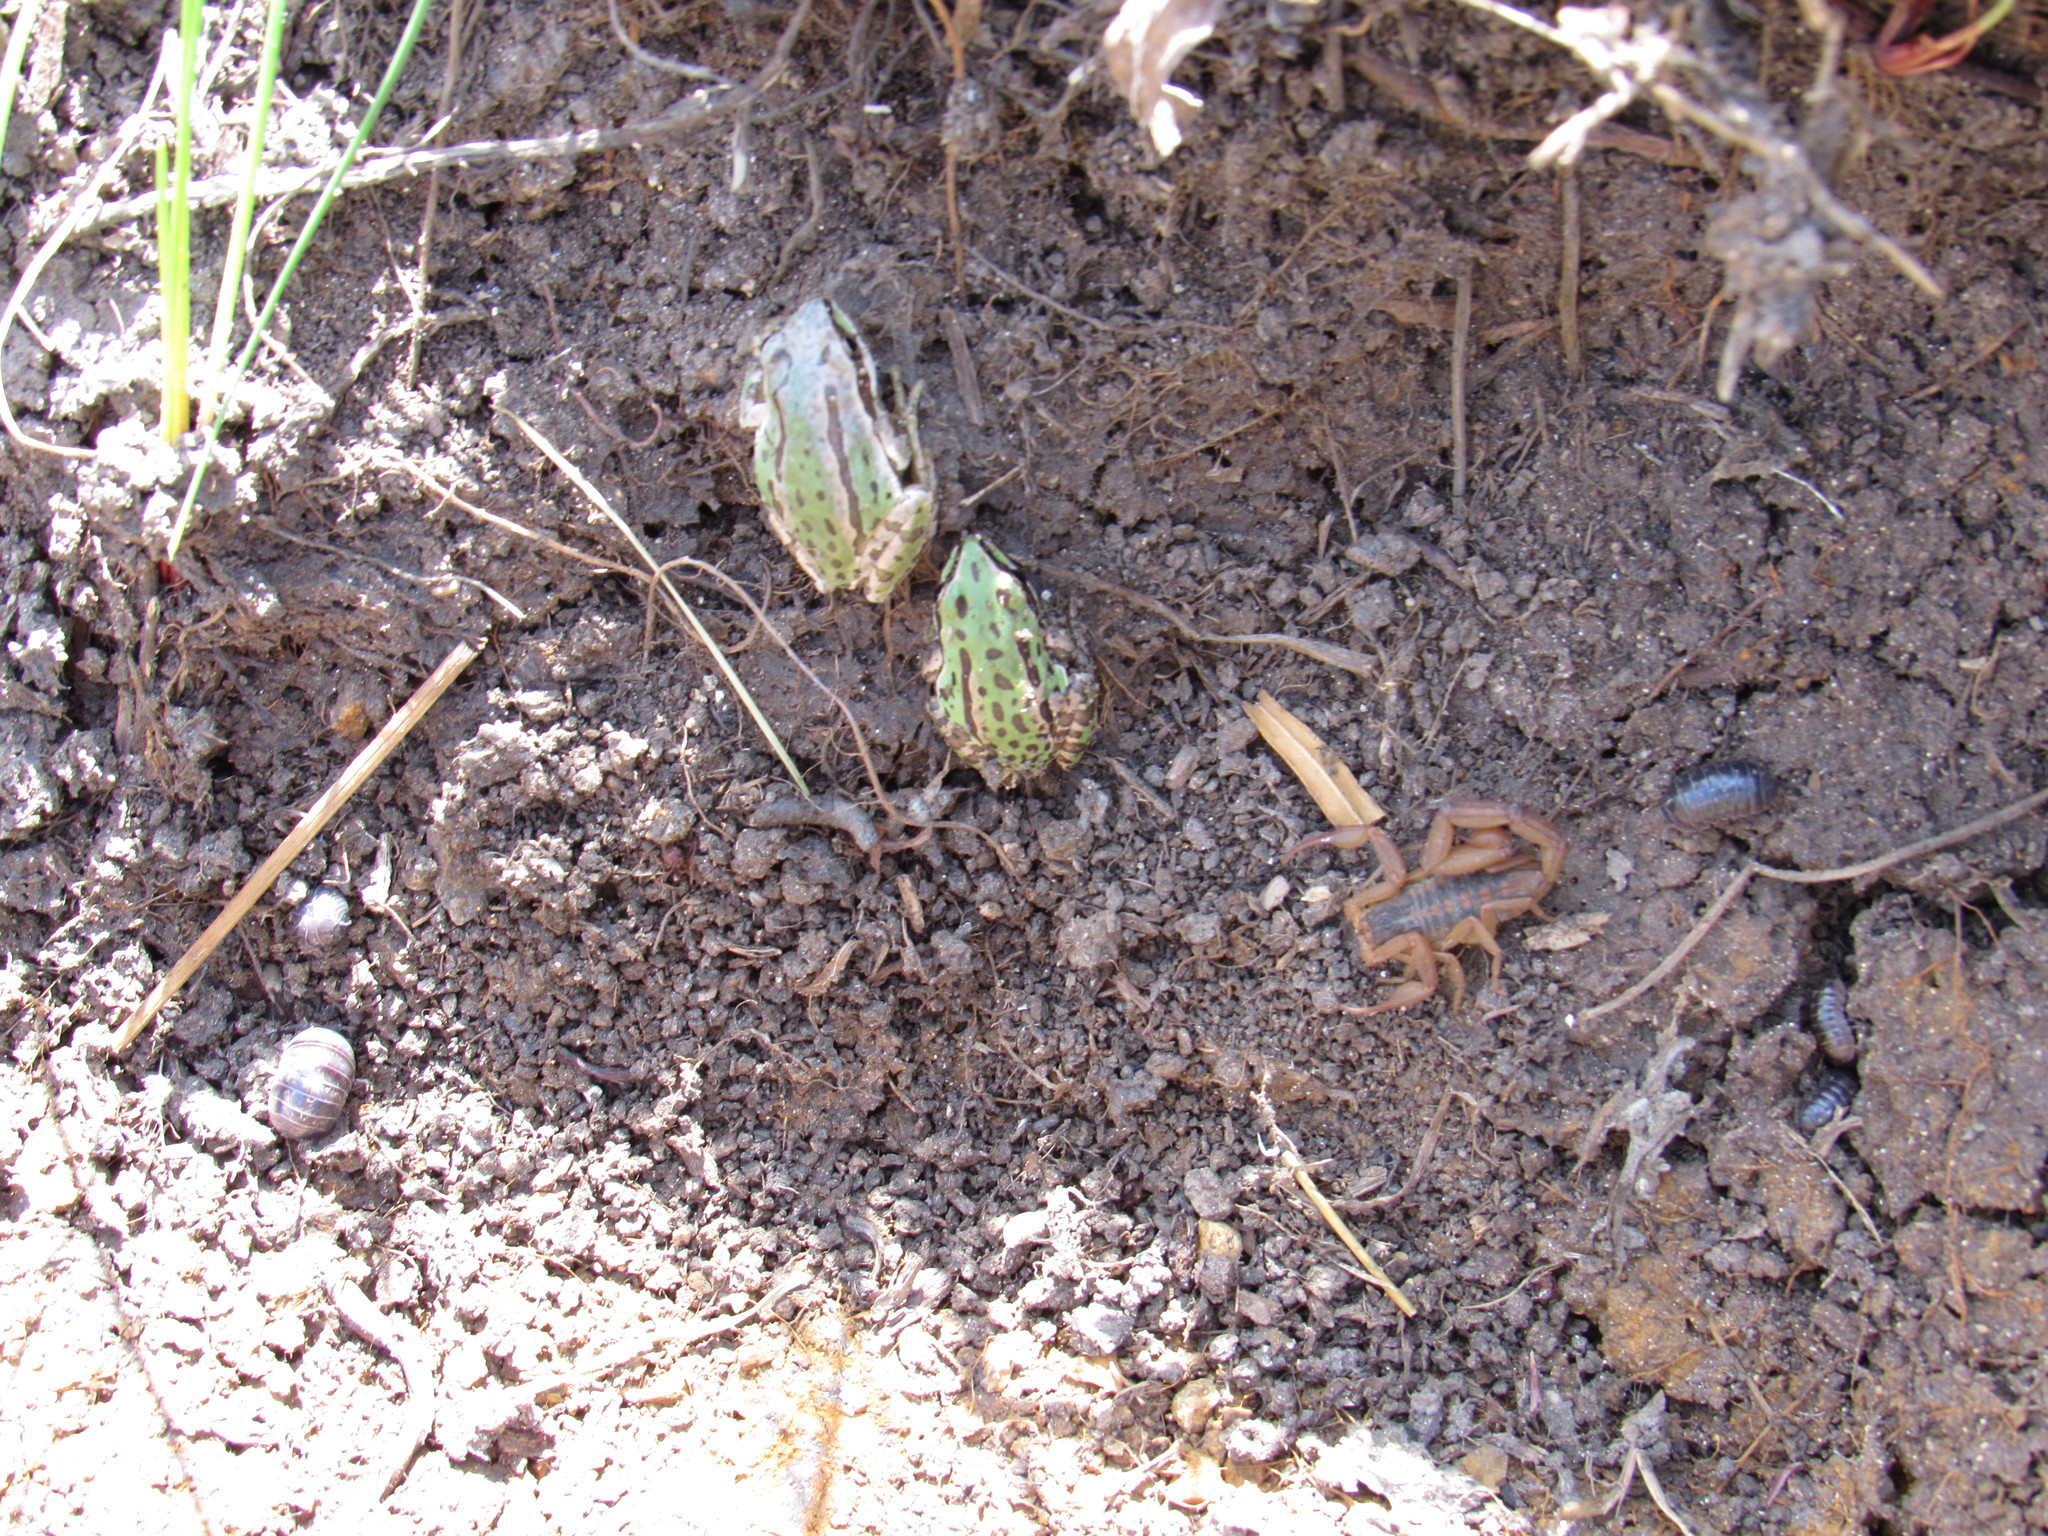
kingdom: Animalia
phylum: Chordata
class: Amphibia
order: Anura
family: Hylidae
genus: Dryophytes
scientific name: Dryophytes eximius
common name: Mountain treefrog
